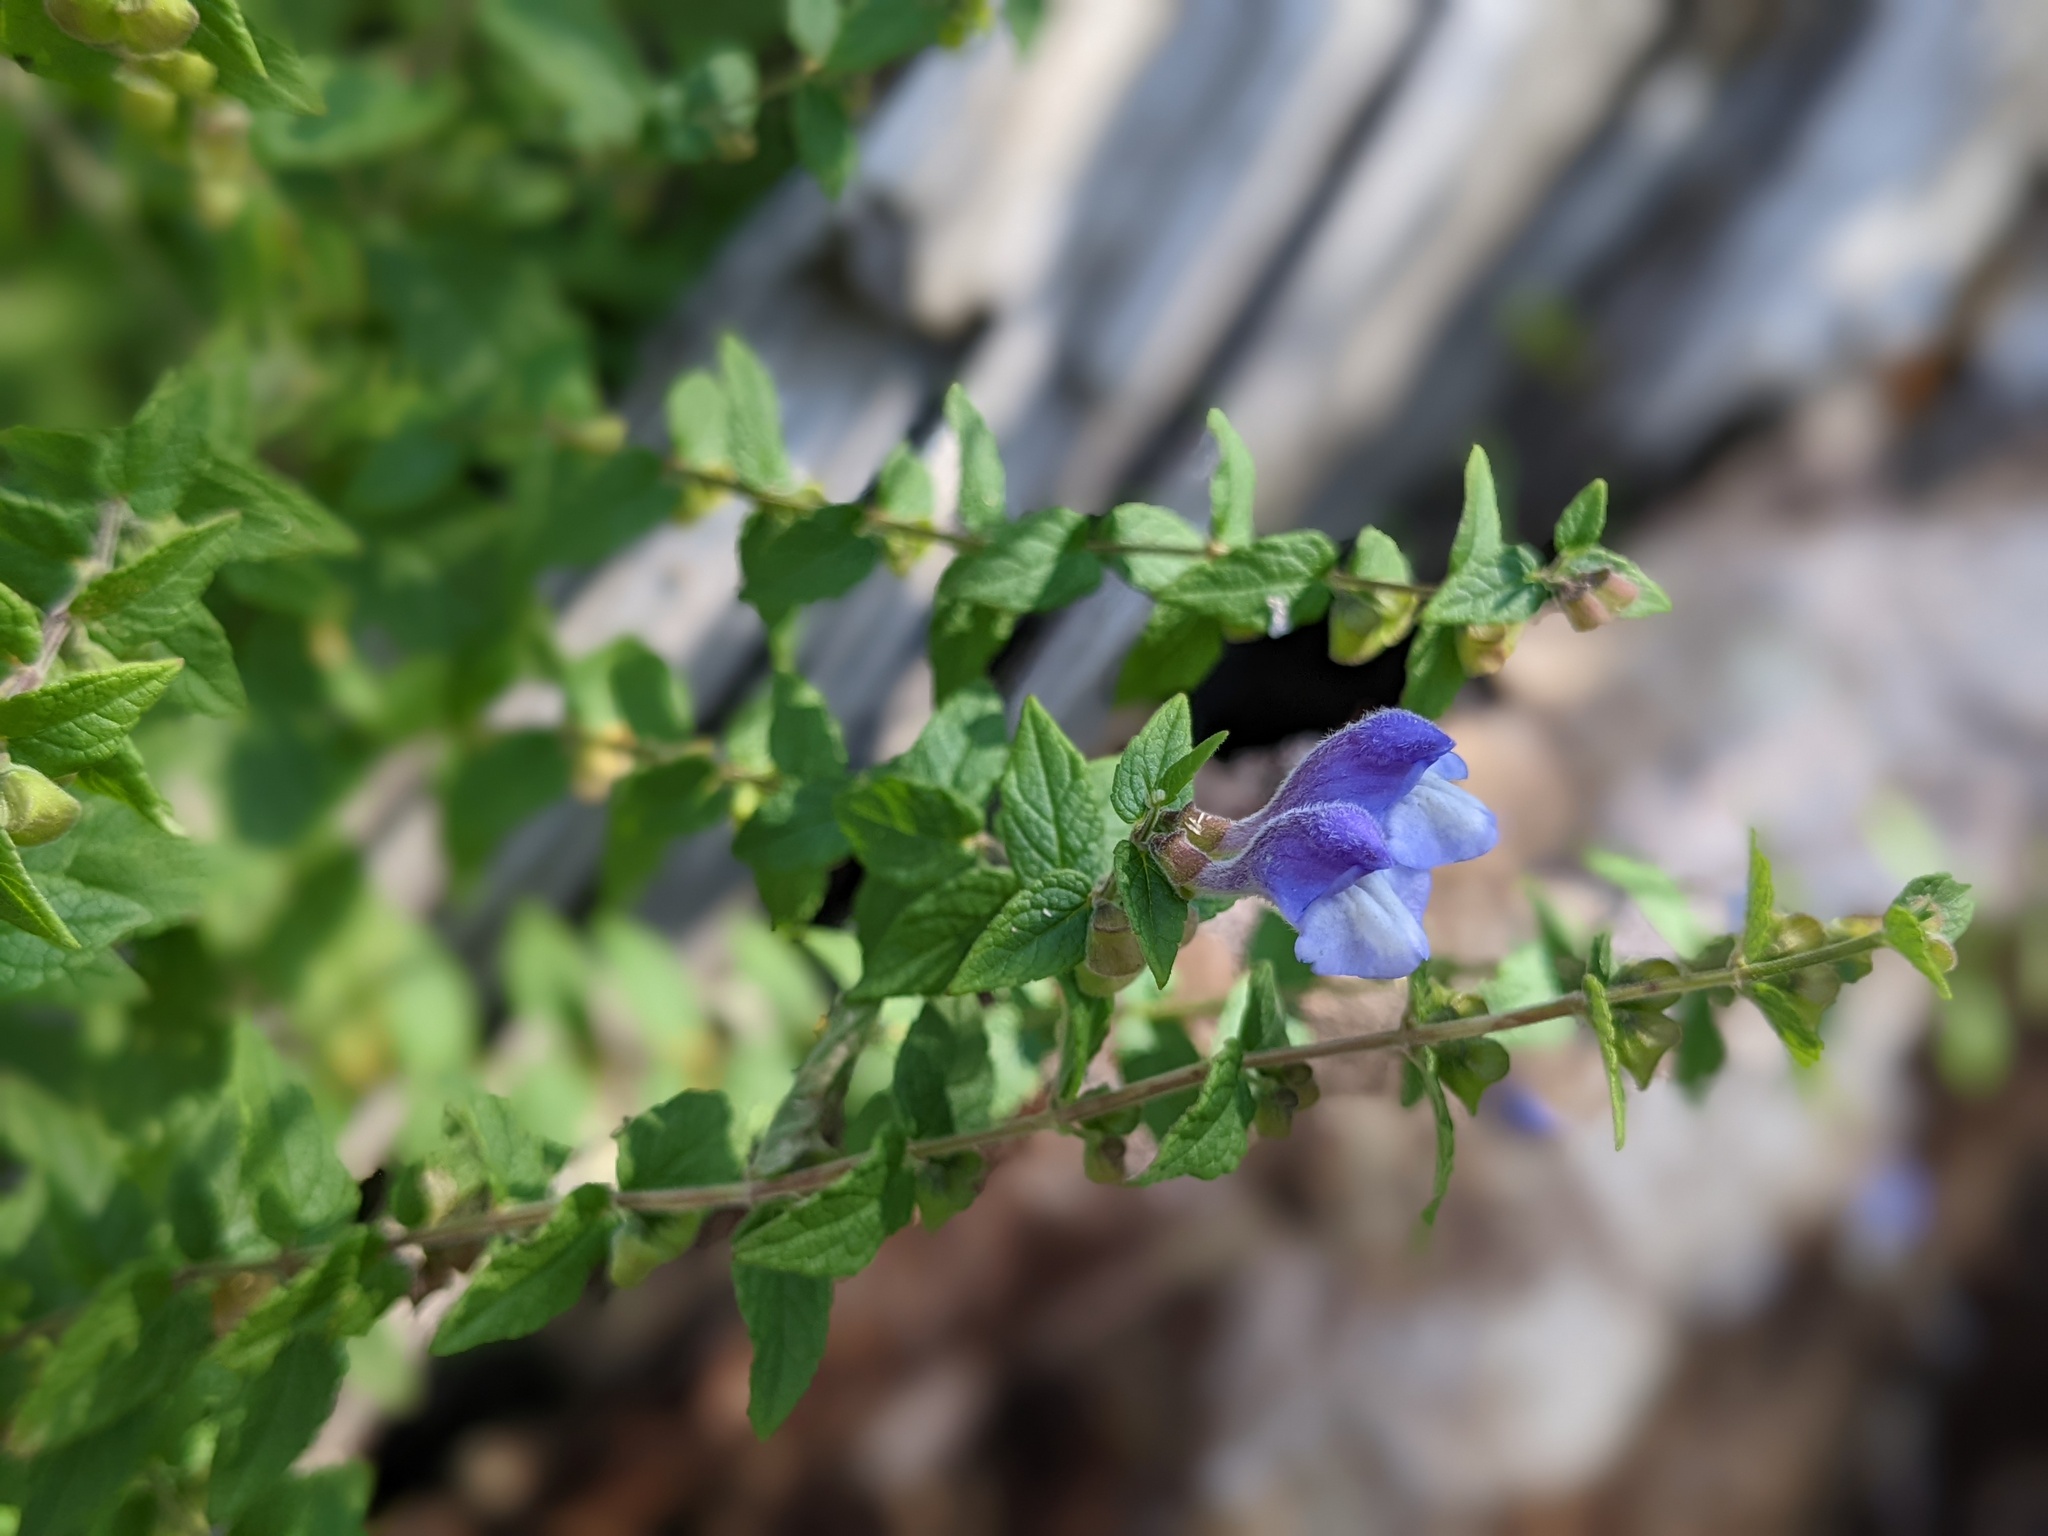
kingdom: Plantae
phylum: Tracheophyta
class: Magnoliopsida
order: Lamiales
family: Lamiaceae
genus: Scutellaria
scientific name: Scutellaria galericulata
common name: Skullcap
